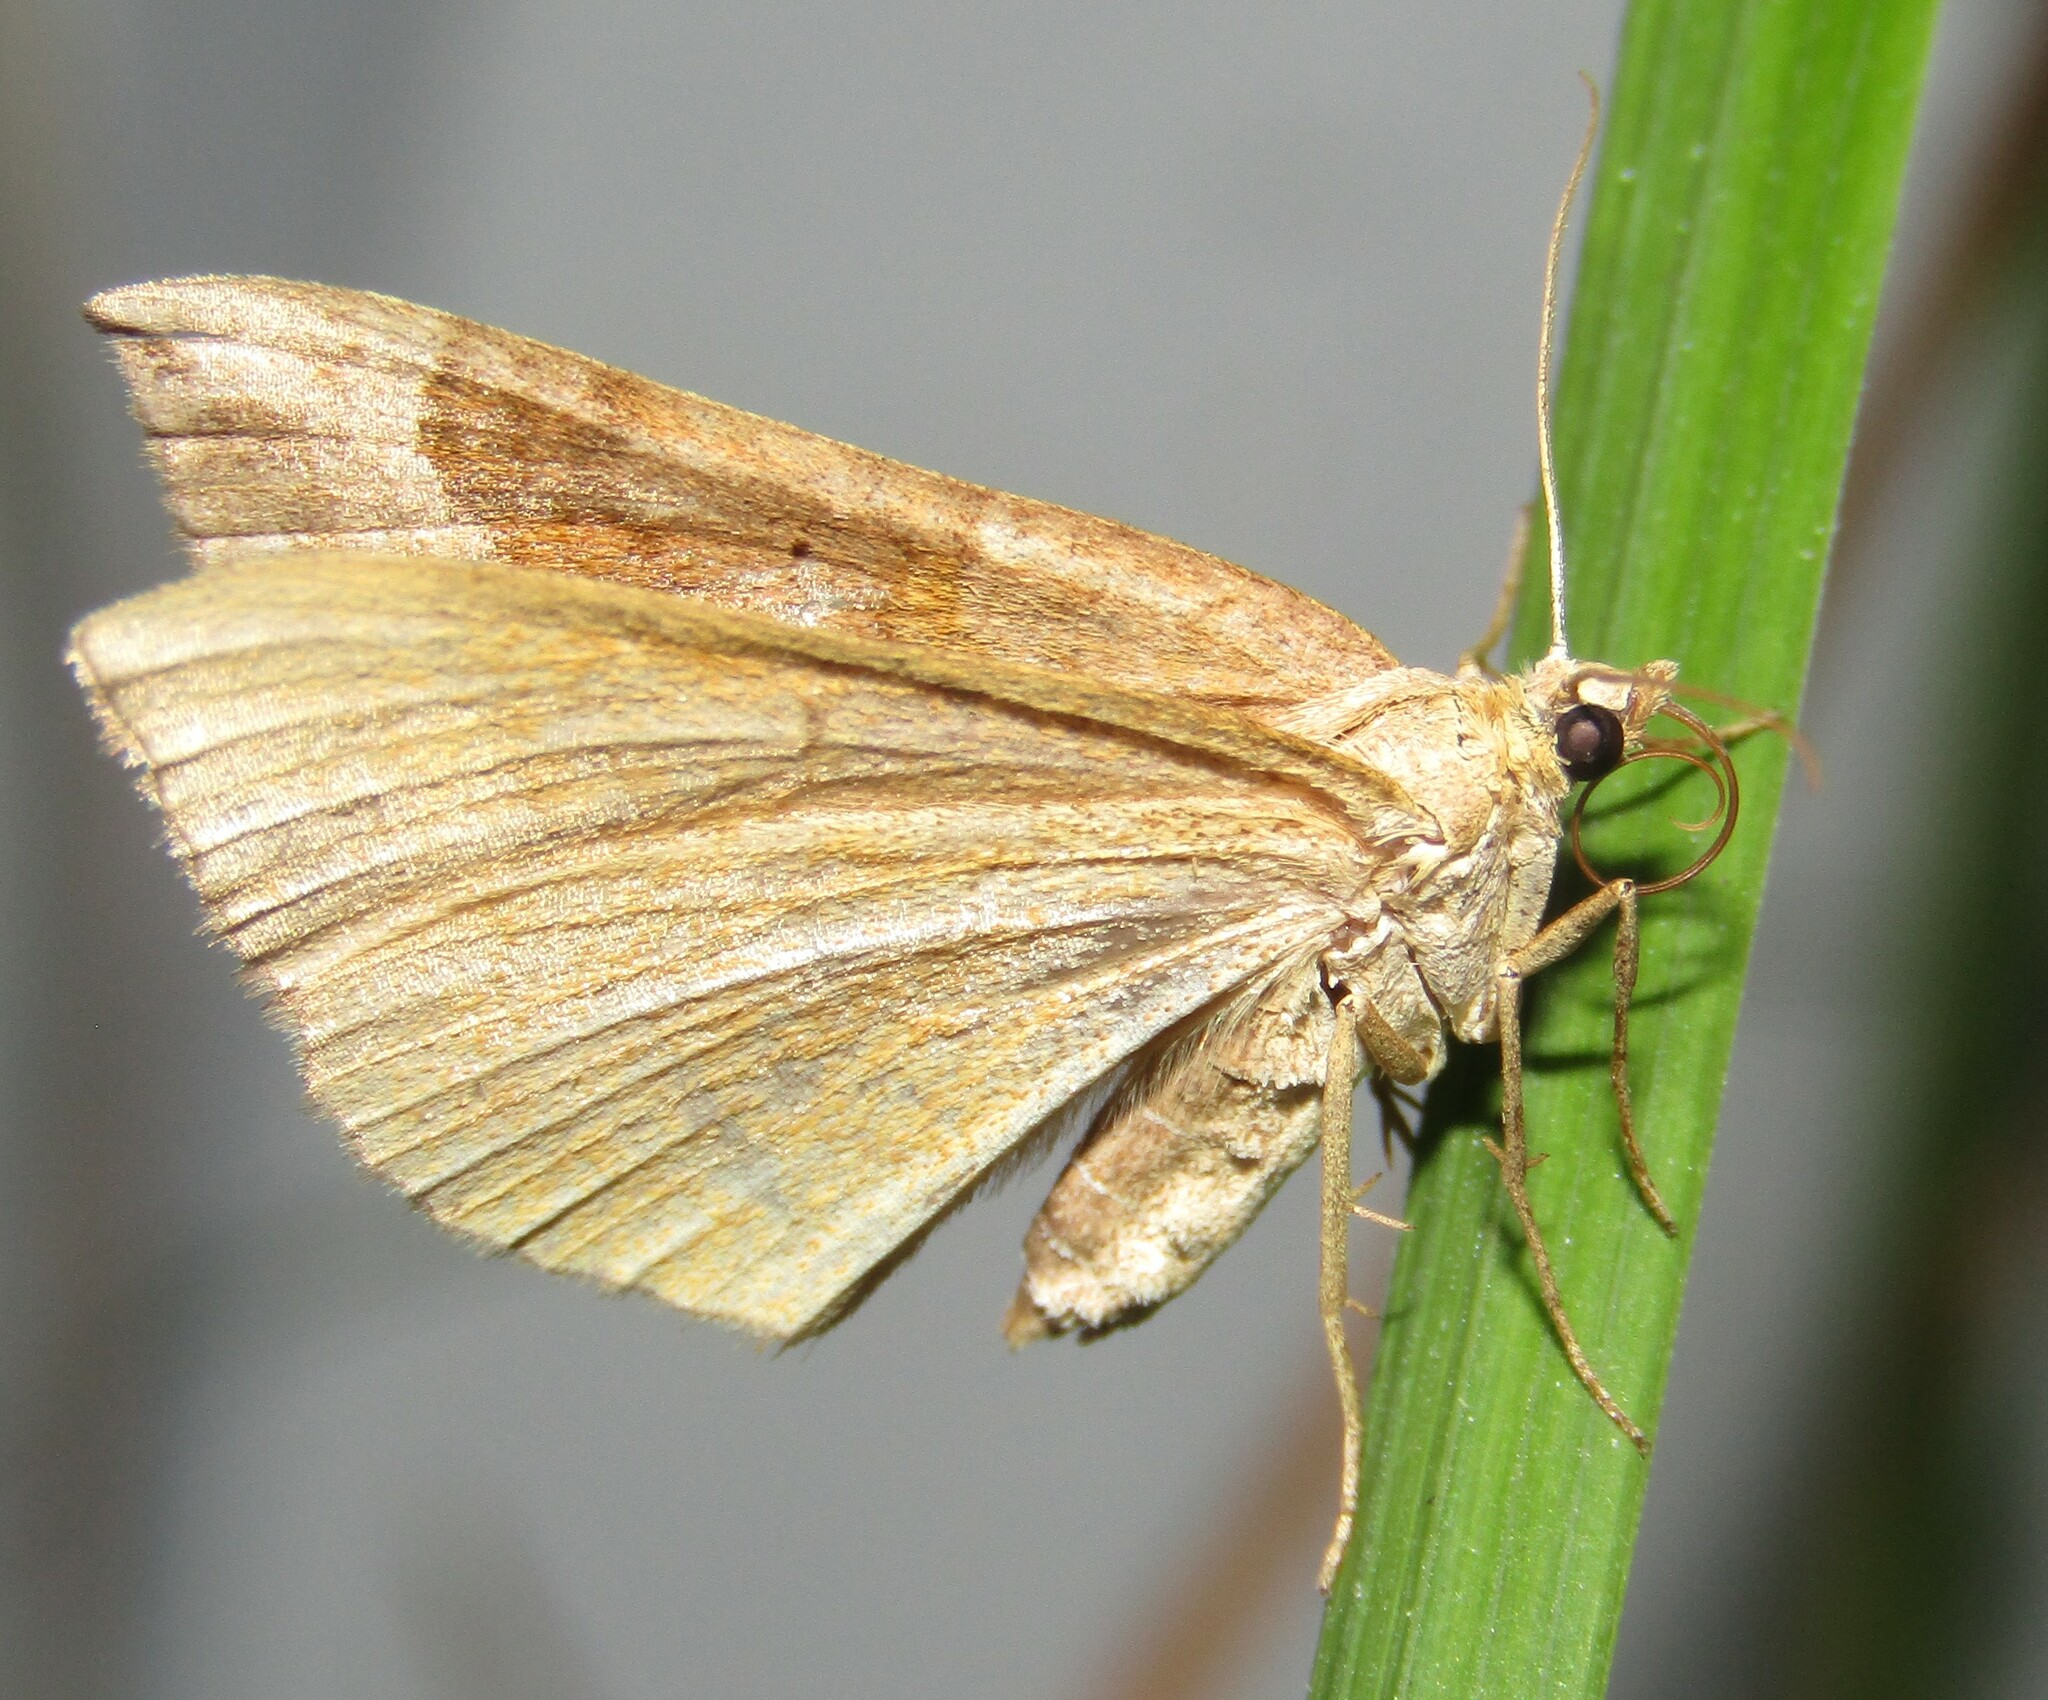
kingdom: Animalia
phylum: Arthropoda
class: Insecta
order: Lepidoptera
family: Geometridae
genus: Scotopteryx
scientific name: Scotopteryx chenopodiata
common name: Shaded broad-bar
